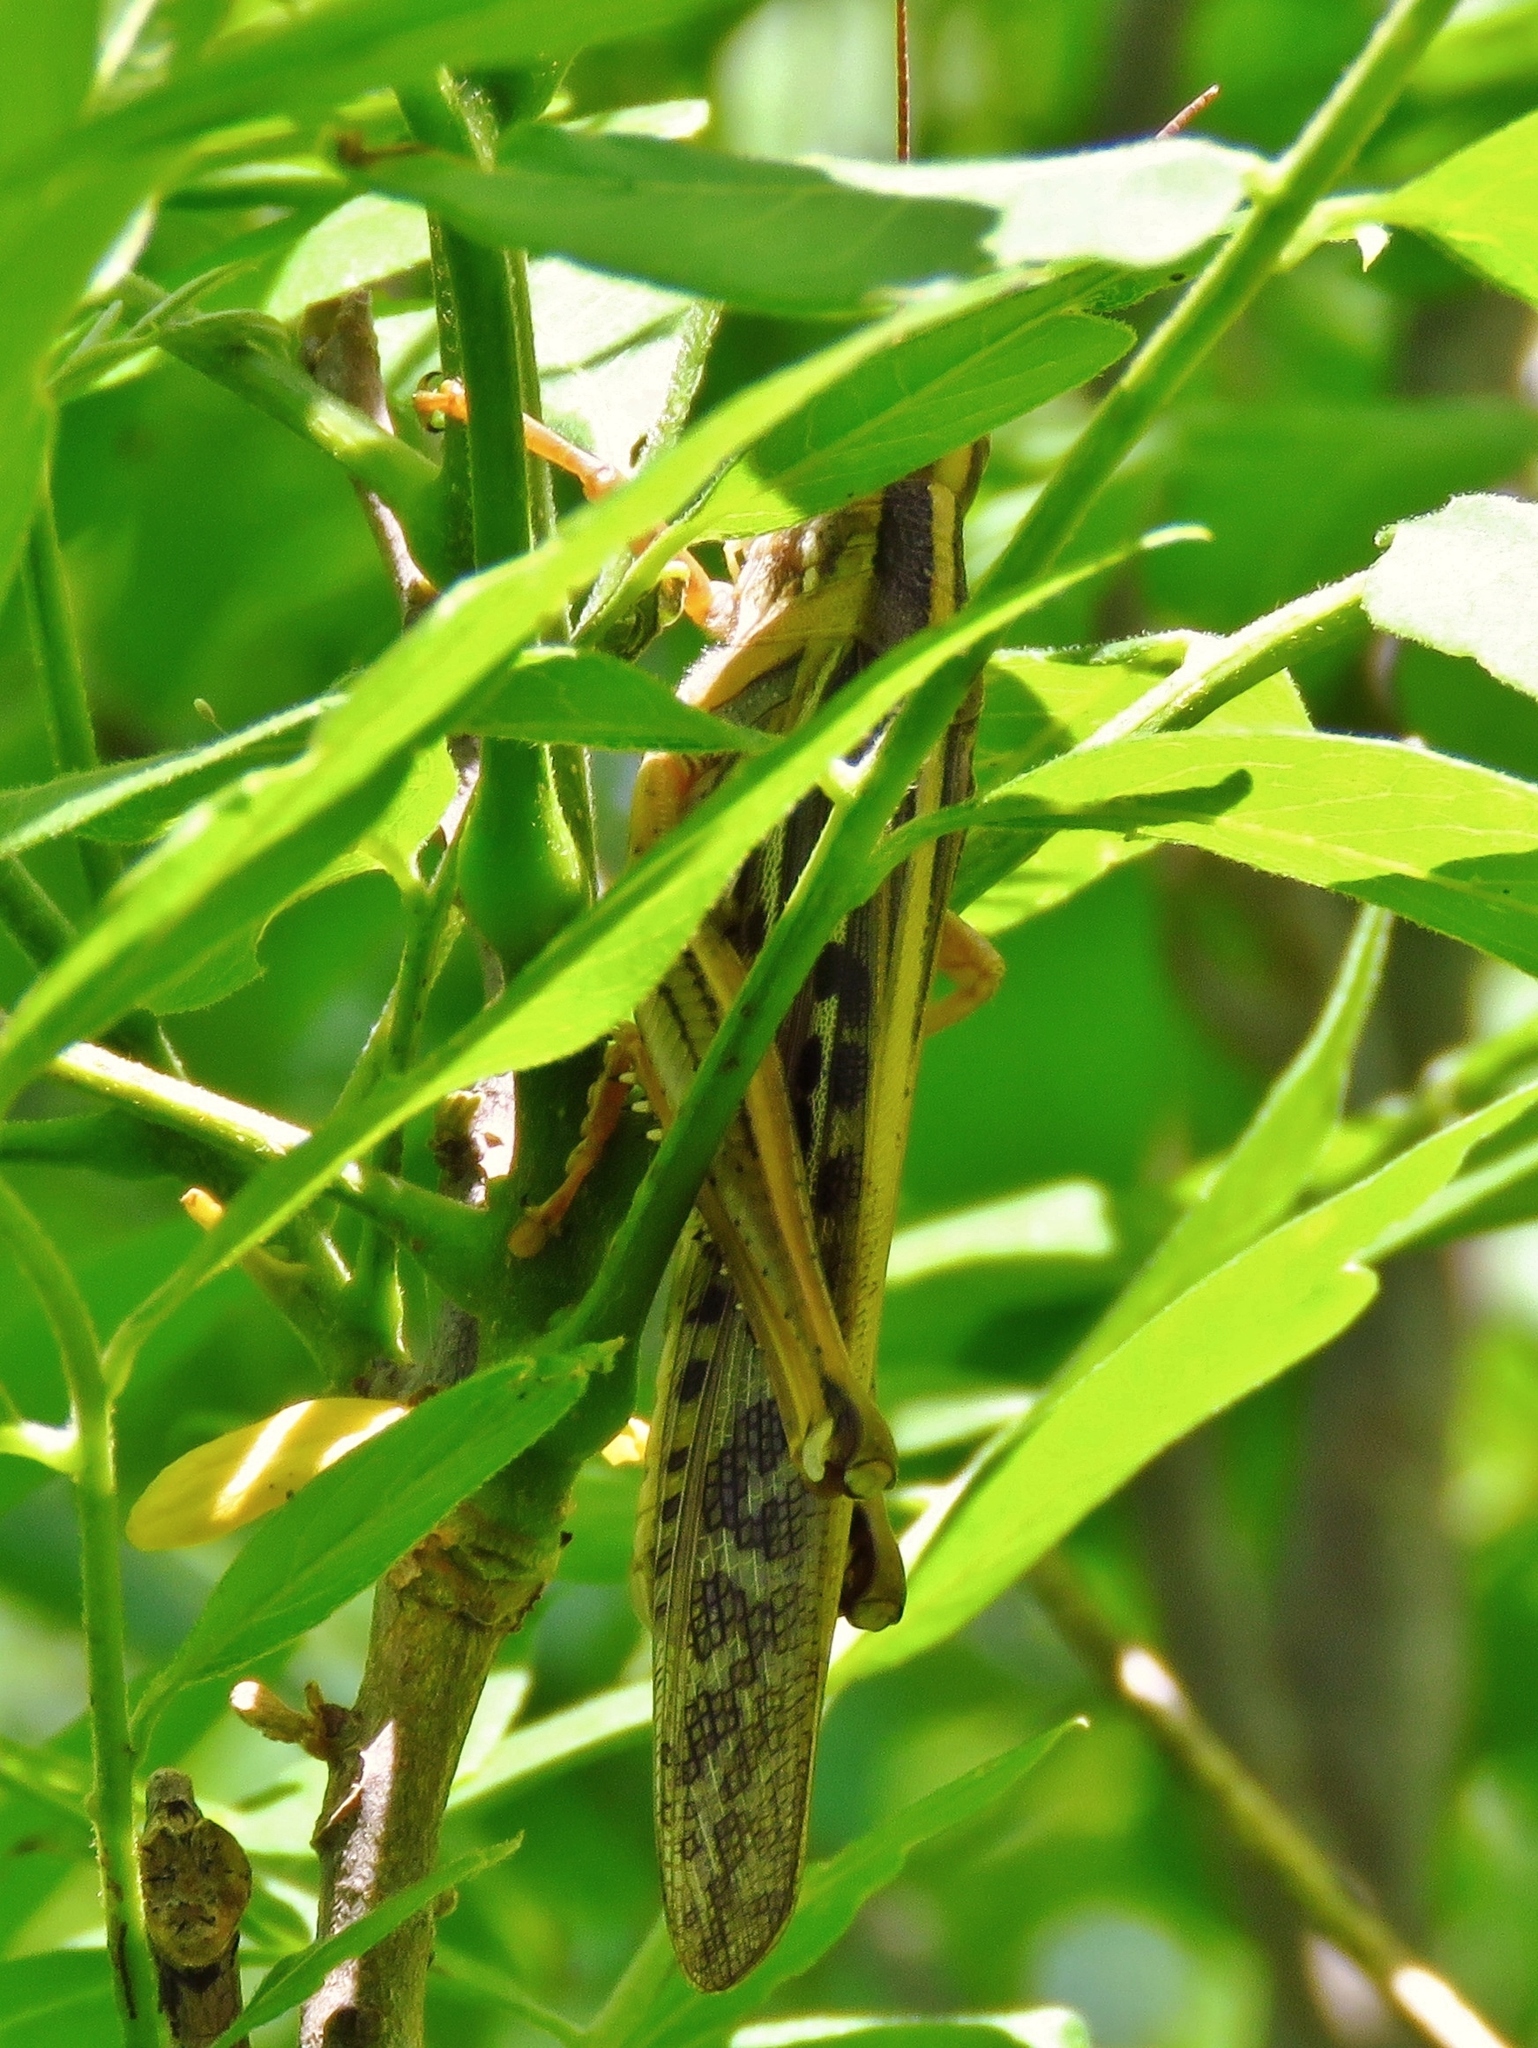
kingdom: Animalia
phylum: Arthropoda
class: Insecta
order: Orthoptera
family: Acrididae
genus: Schistocerca
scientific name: Schistocerca americana
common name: American bird locust
